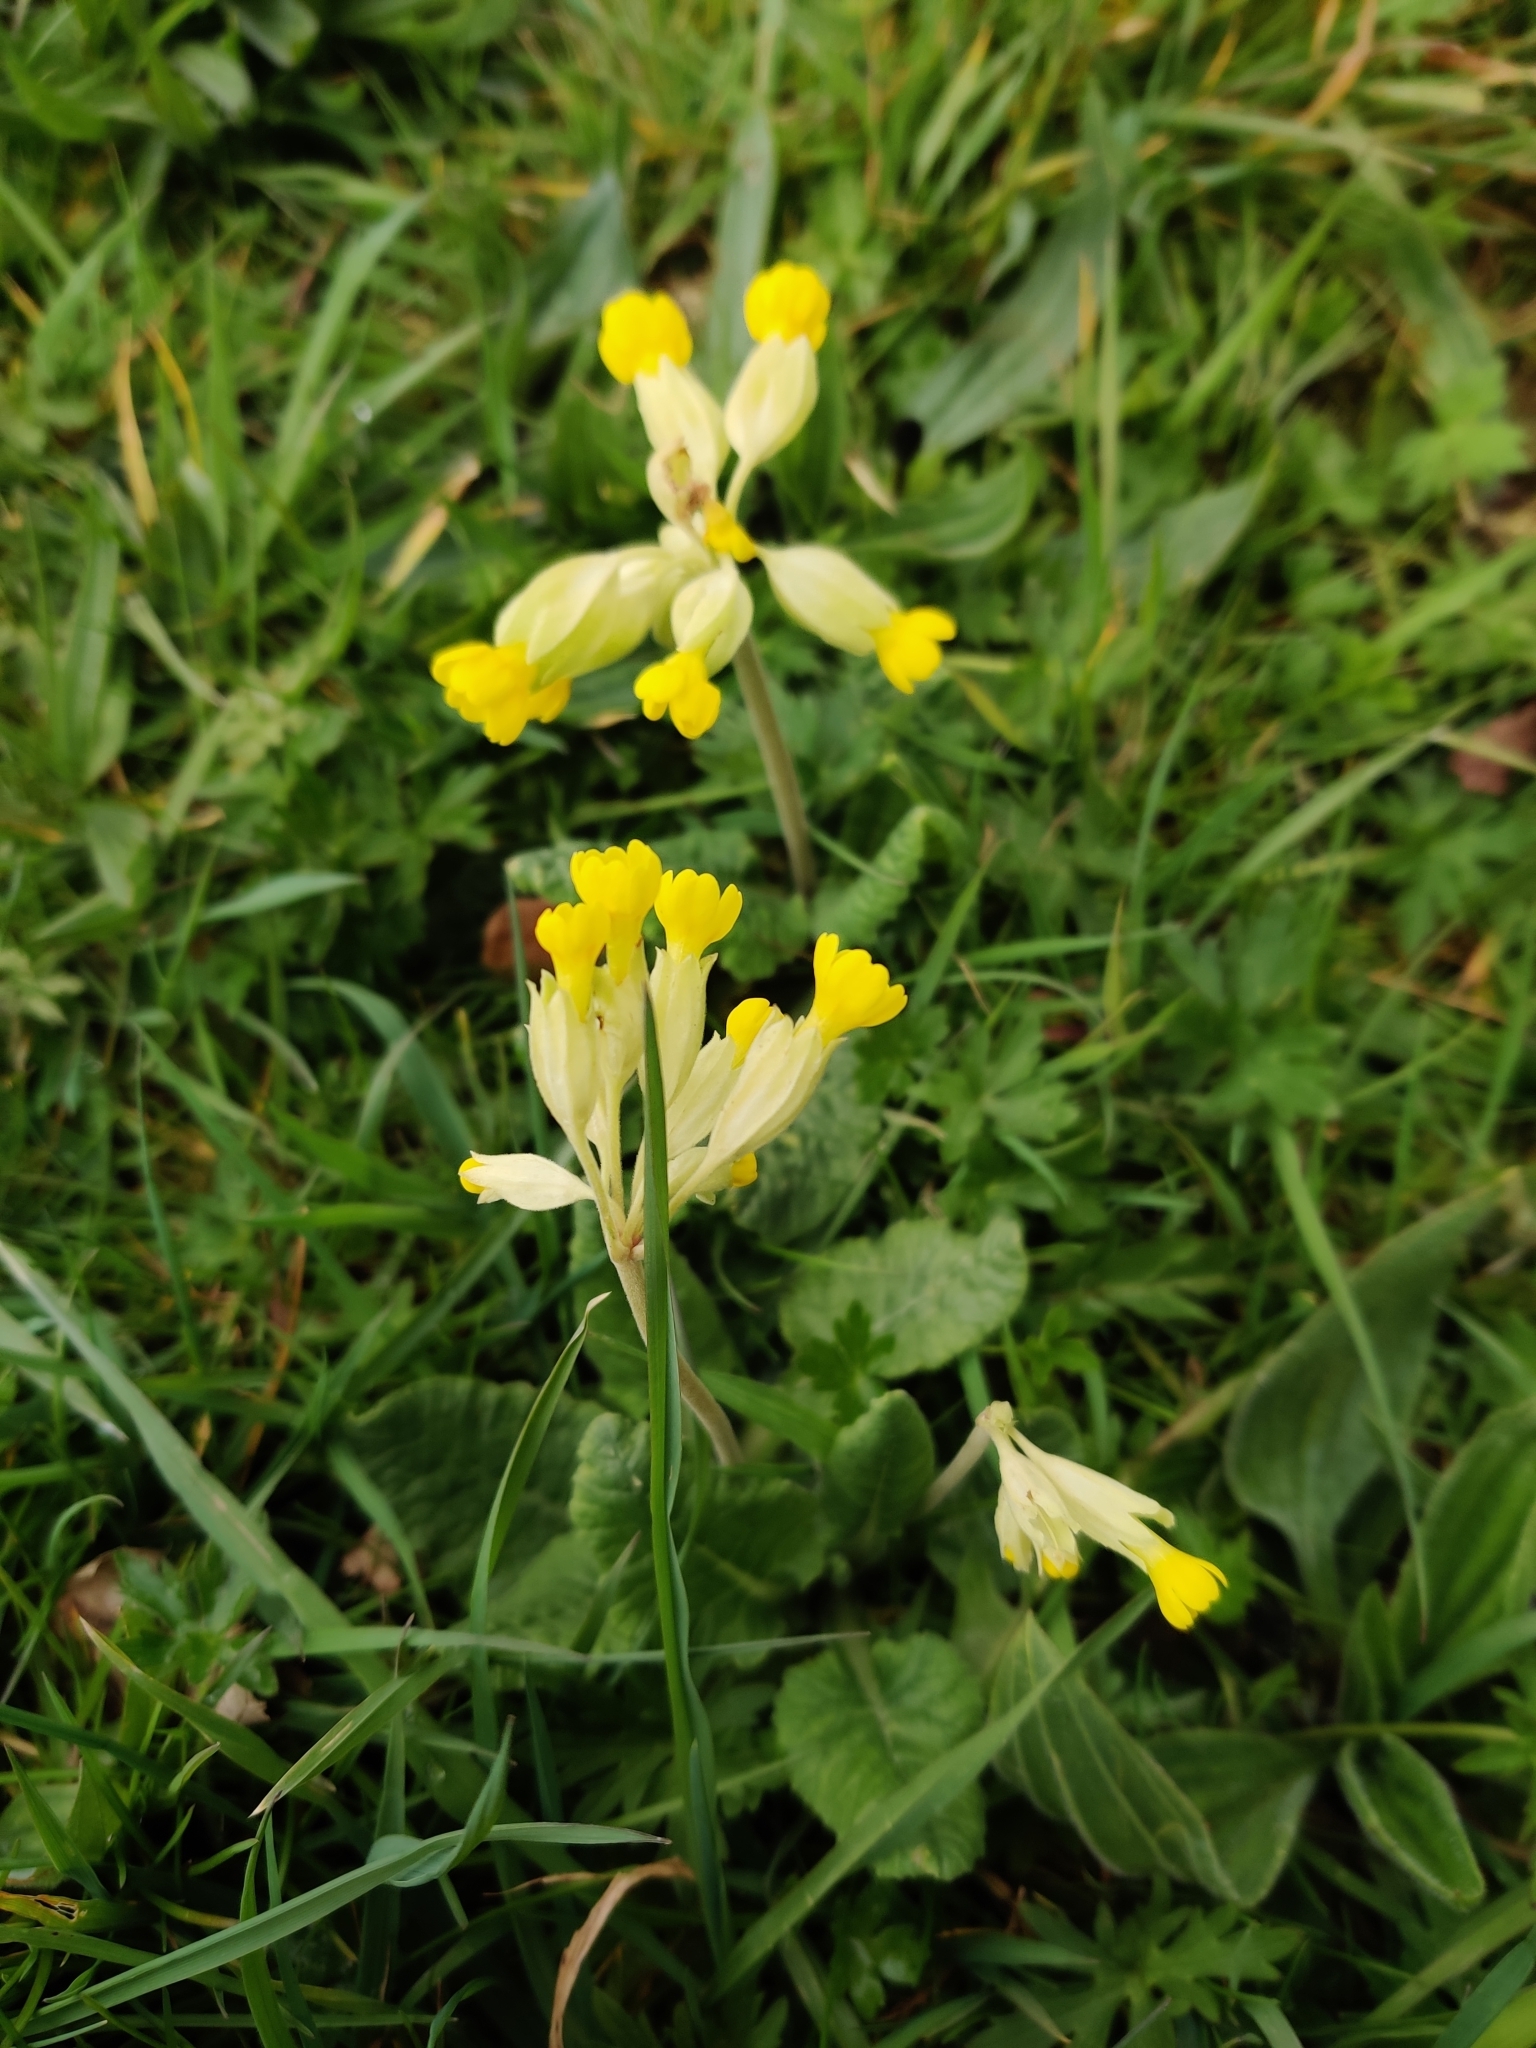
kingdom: Plantae
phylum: Tracheophyta
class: Magnoliopsida
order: Ericales
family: Primulaceae
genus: Primula
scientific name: Primula veris
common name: Cowslip
